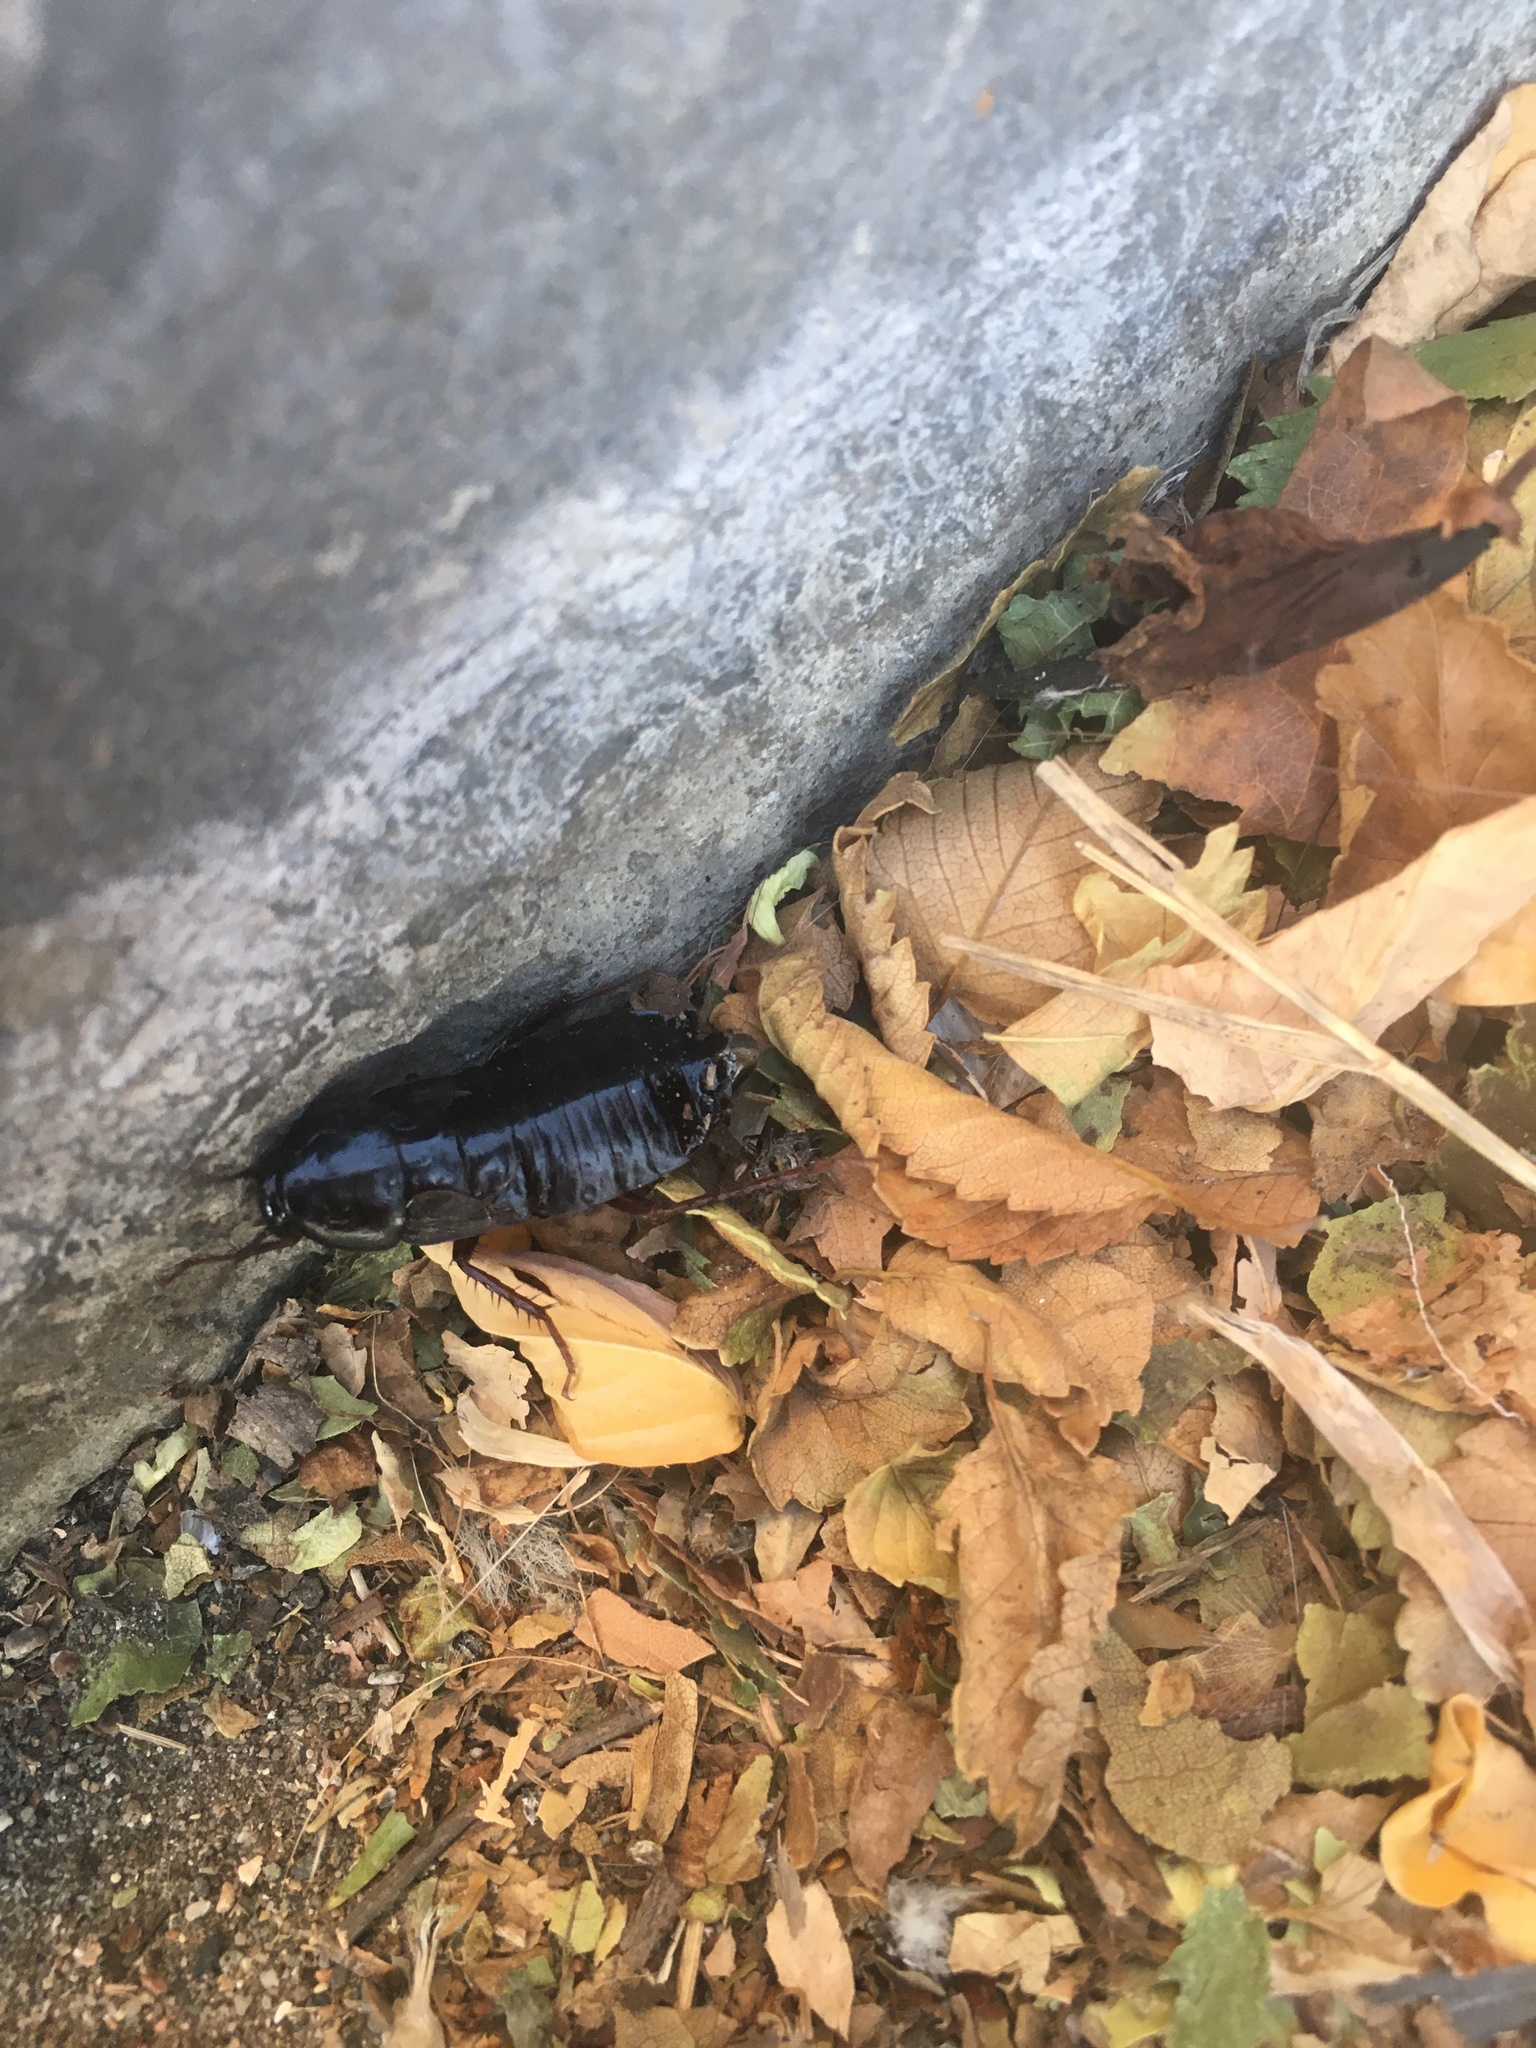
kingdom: Animalia
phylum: Arthropoda
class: Insecta
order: Blattodea
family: Blattidae
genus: Blatta
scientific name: Blatta orientalis
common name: Oriental cockroach
